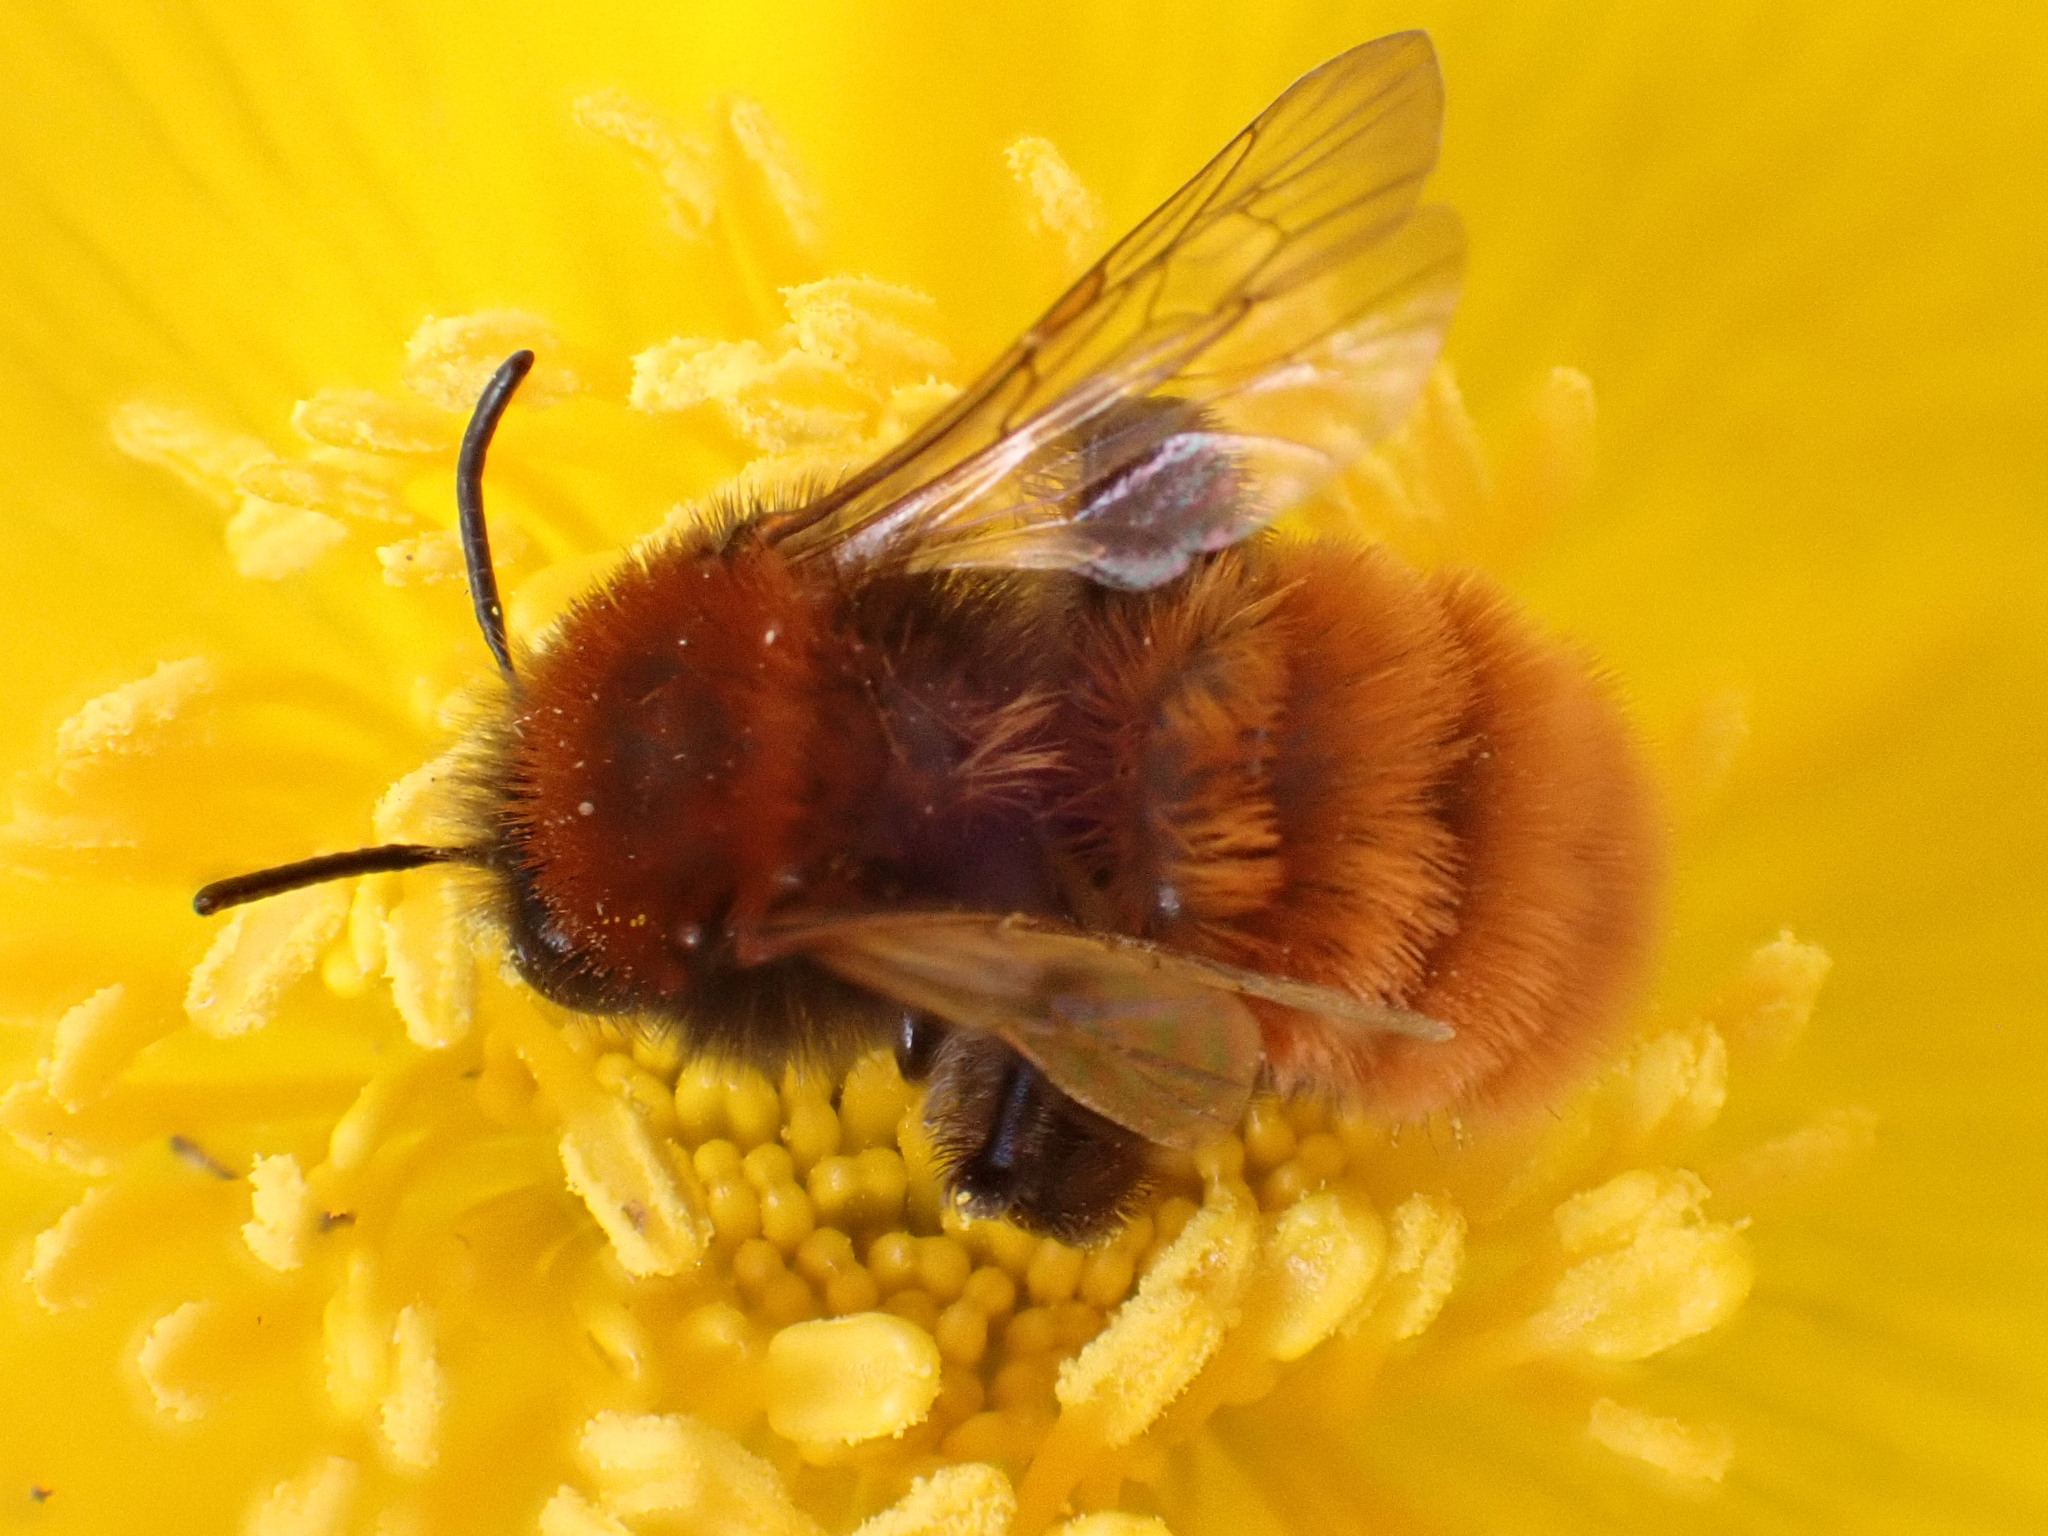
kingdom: Animalia
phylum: Arthropoda
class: Insecta
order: Hymenoptera
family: Andrenidae
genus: Andrena
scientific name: Andrena fulva
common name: Tawny mining bee
